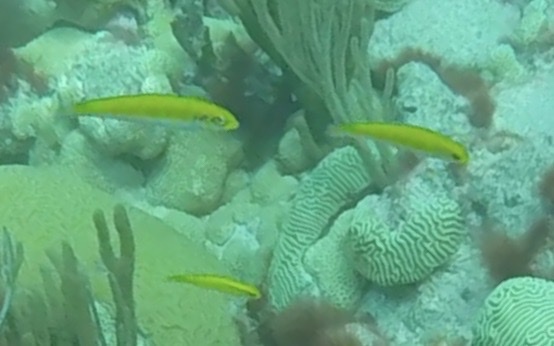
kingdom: Animalia
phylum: Chordata
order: Perciformes
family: Labridae
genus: Thalassoma
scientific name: Thalassoma bifasciatum
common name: Bluehead wrasse
